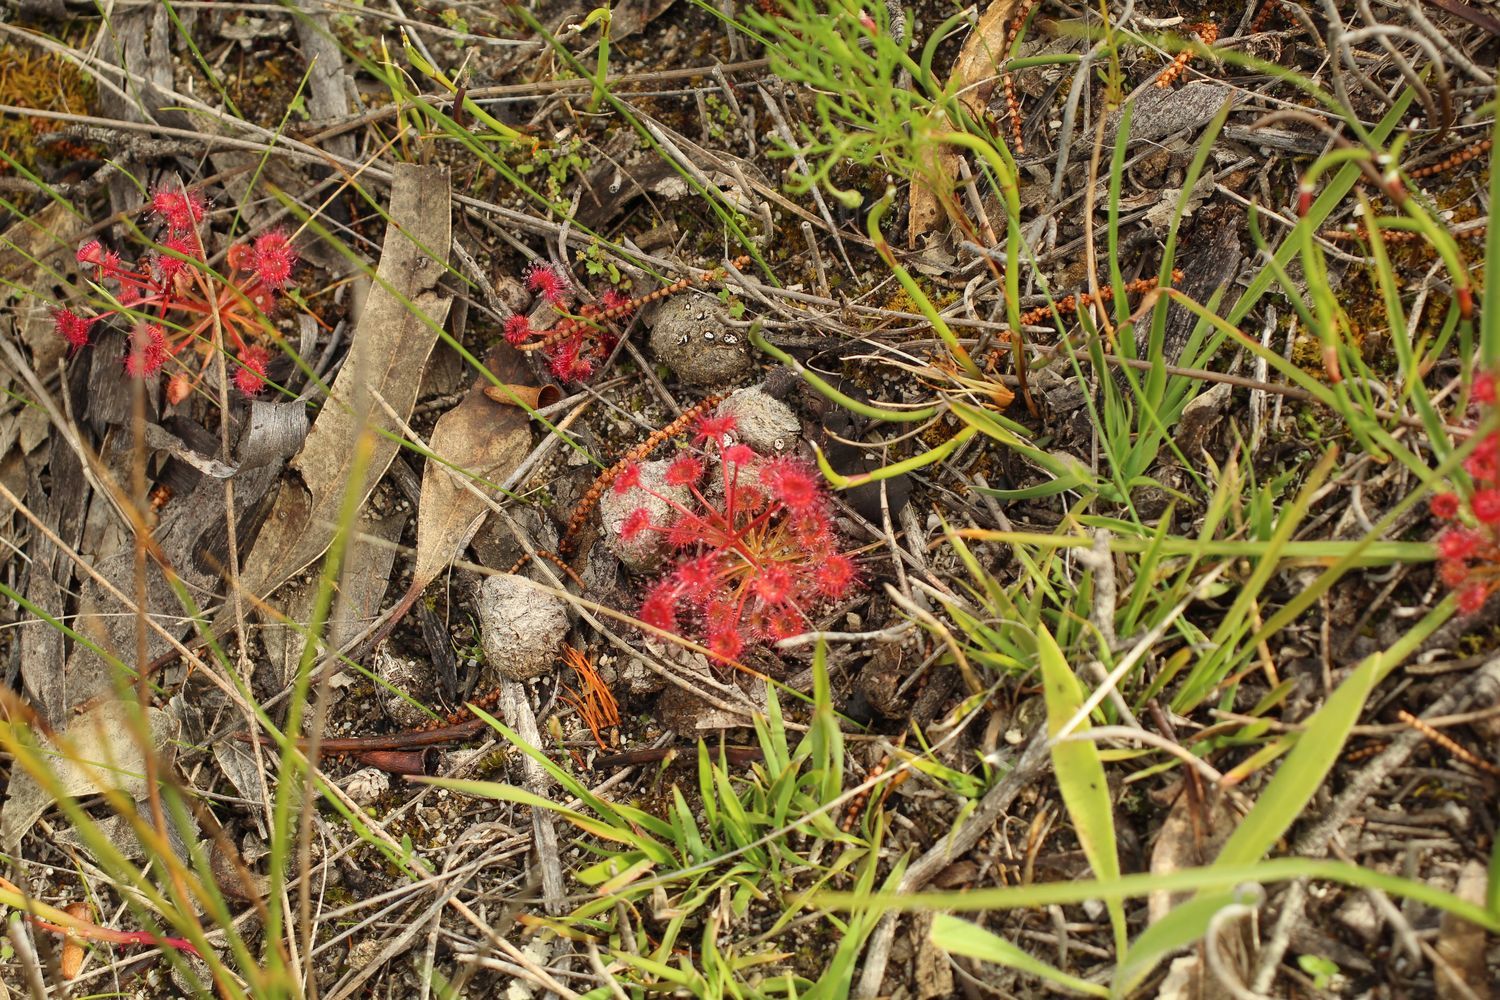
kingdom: Plantae
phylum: Tracheophyta
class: Magnoliopsida
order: Caryophyllales
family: Droseraceae
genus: Drosera
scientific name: Drosera stolonifera
